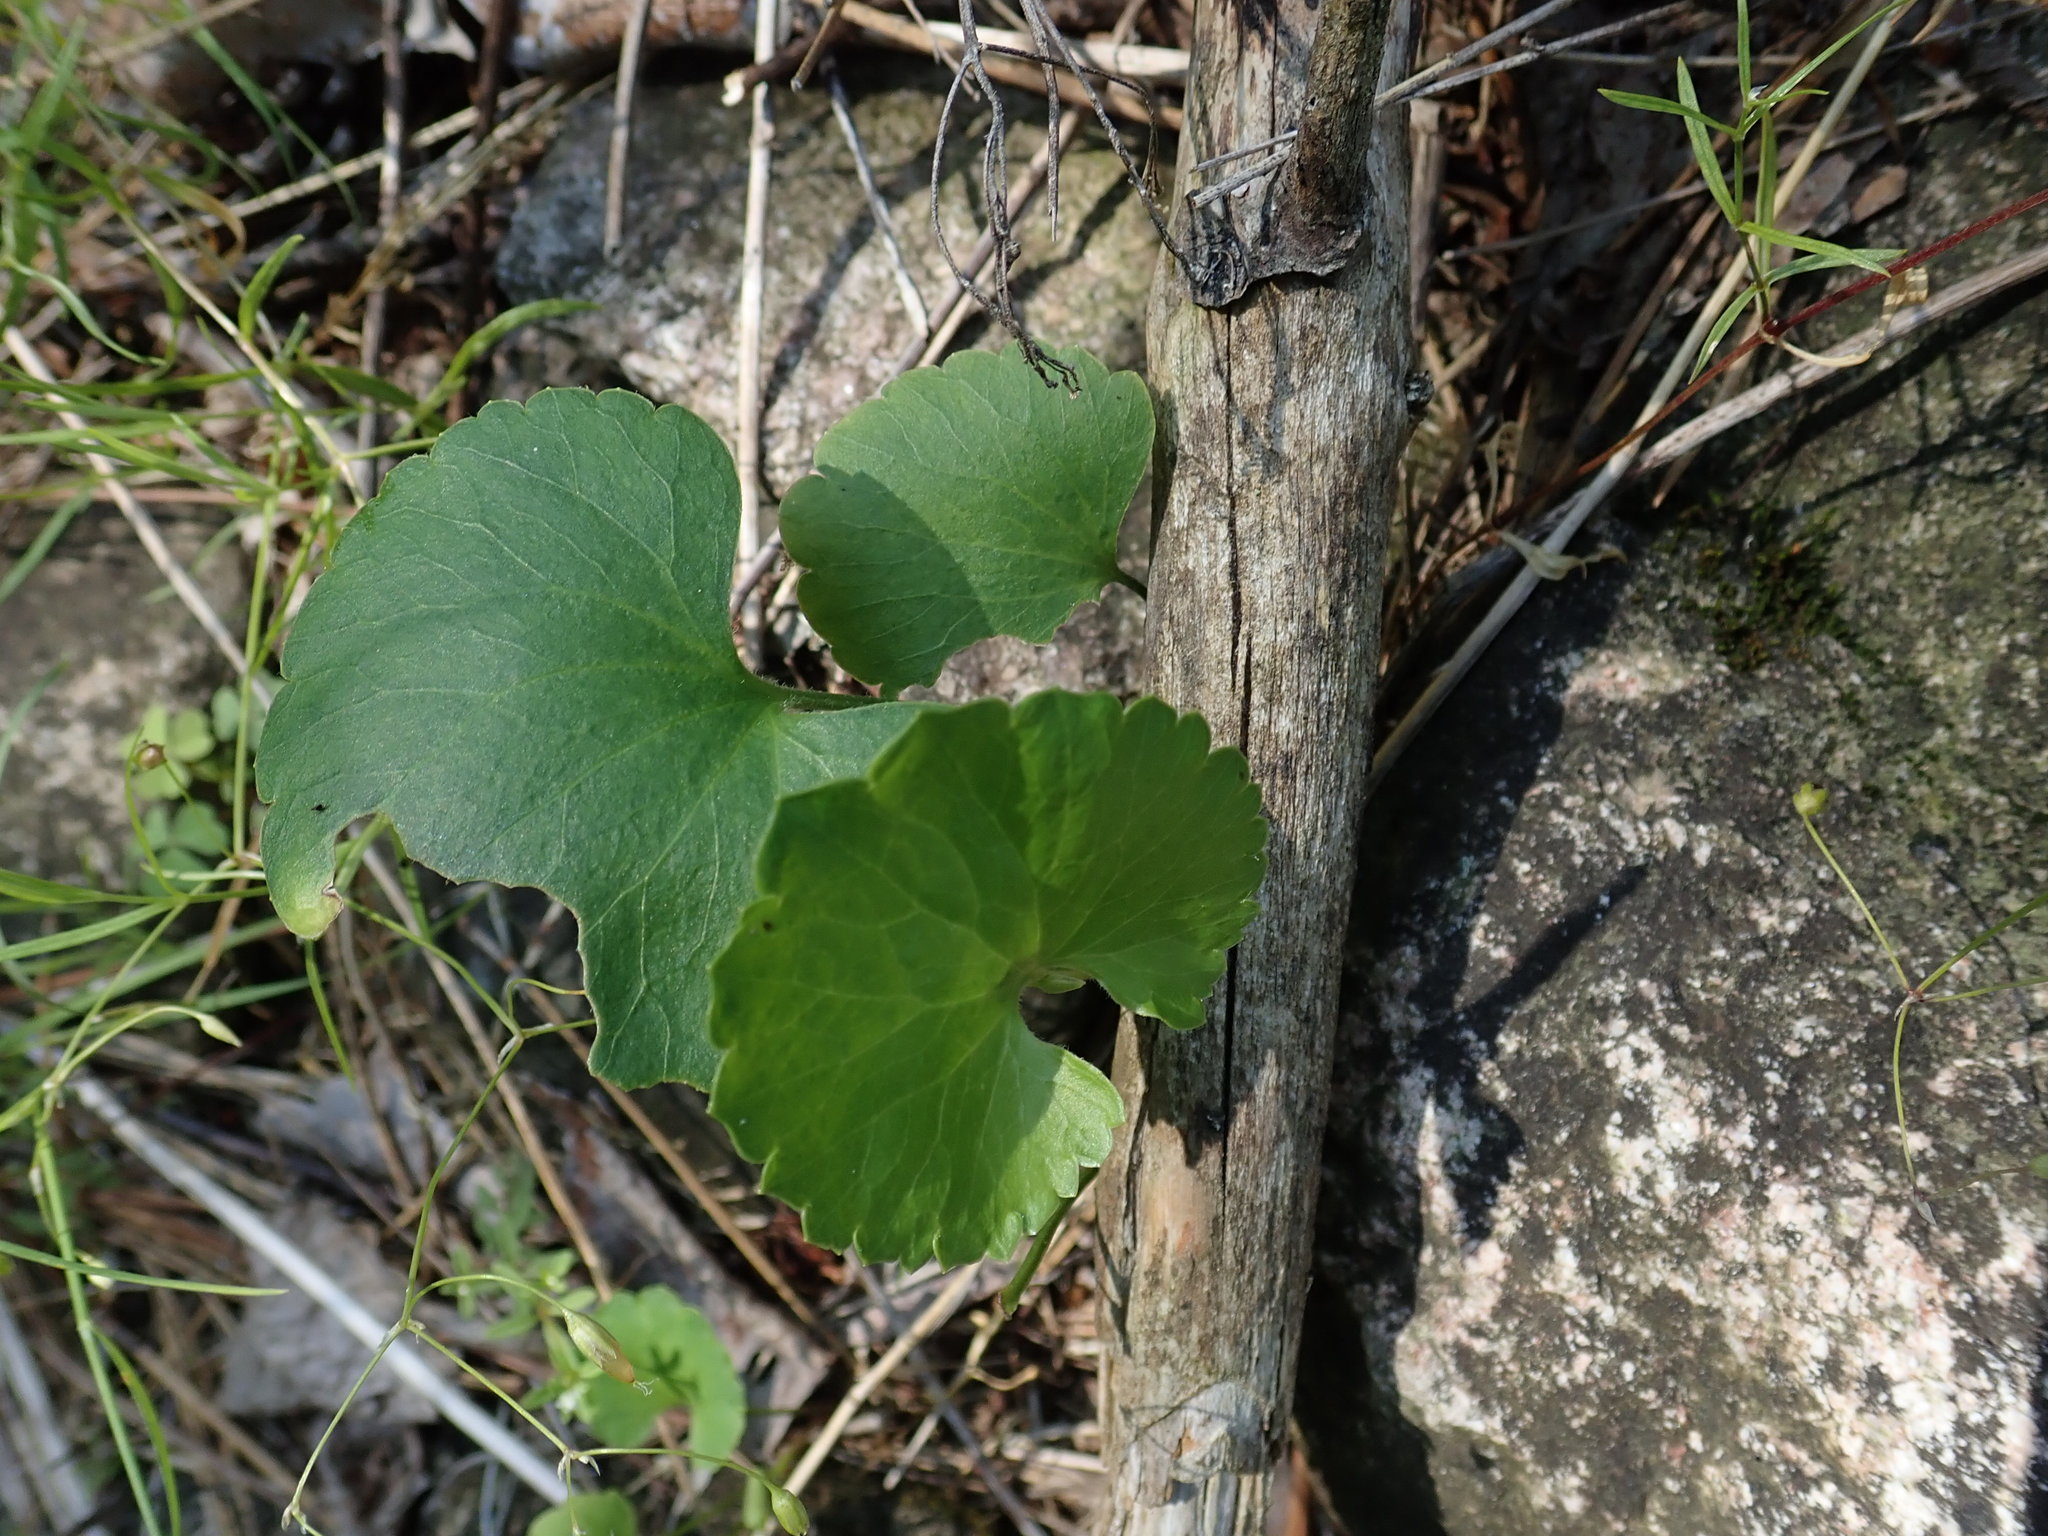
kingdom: Plantae
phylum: Tracheophyta
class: Magnoliopsida
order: Ranunculales
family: Ranunculaceae
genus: Ranunculus
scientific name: Ranunculus rhomboideus
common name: Prairie buttercup
